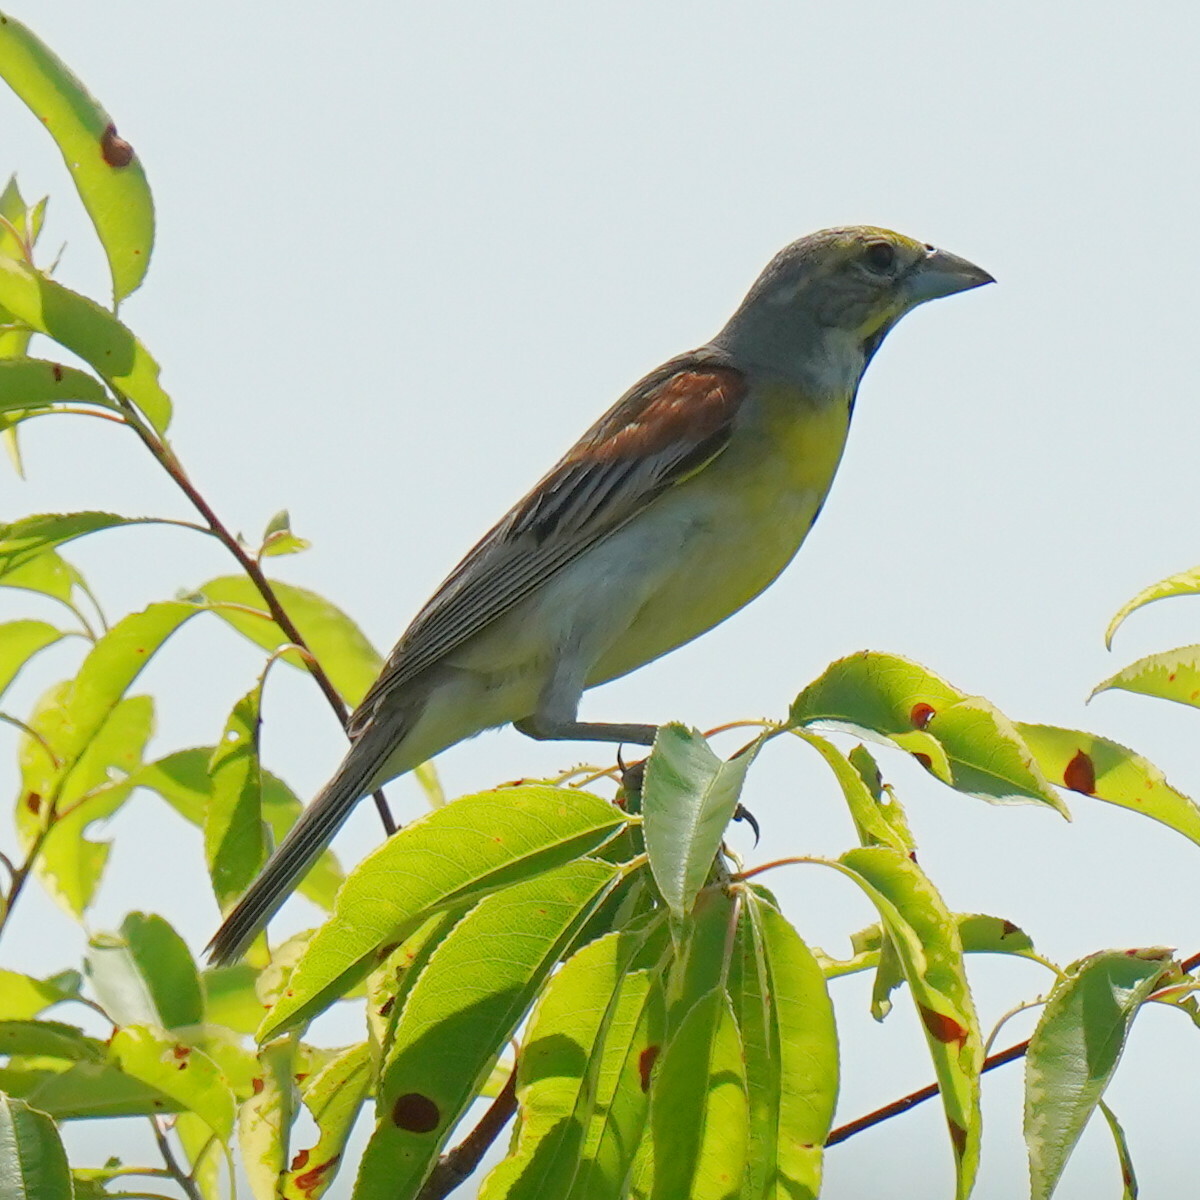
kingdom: Animalia
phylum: Chordata
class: Aves
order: Passeriformes
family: Cardinalidae
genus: Spiza
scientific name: Spiza americana
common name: Dickcissel
